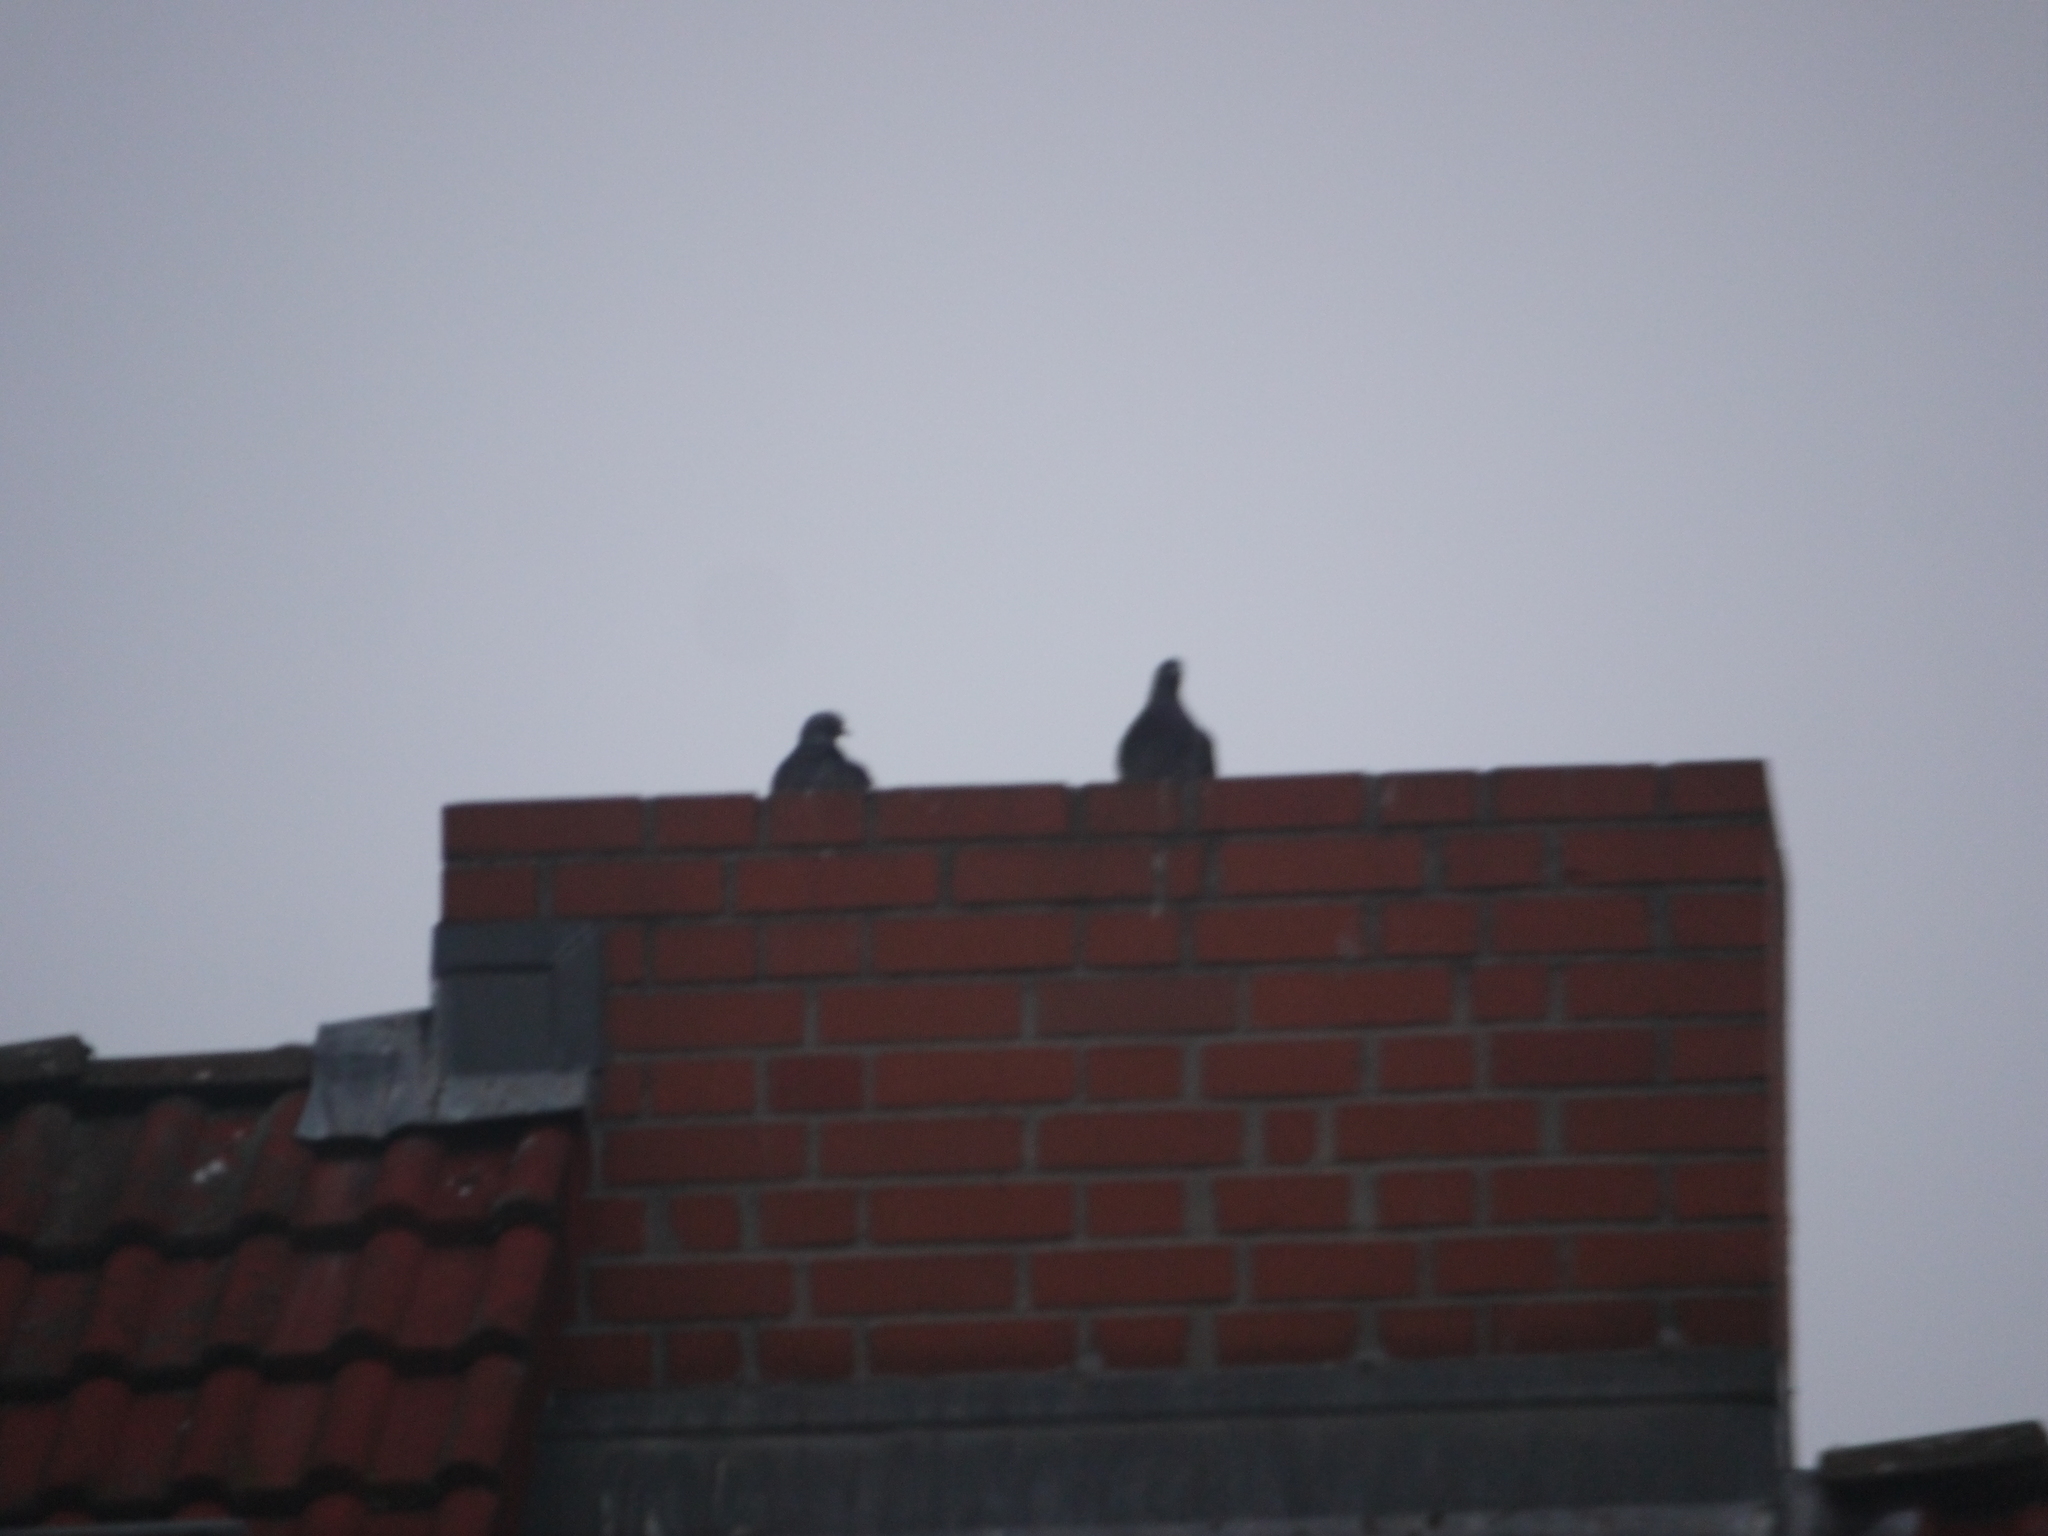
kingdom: Animalia
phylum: Chordata
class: Aves
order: Columbiformes
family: Columbidae
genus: Columba
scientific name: Columba livia
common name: Rock pigeon
